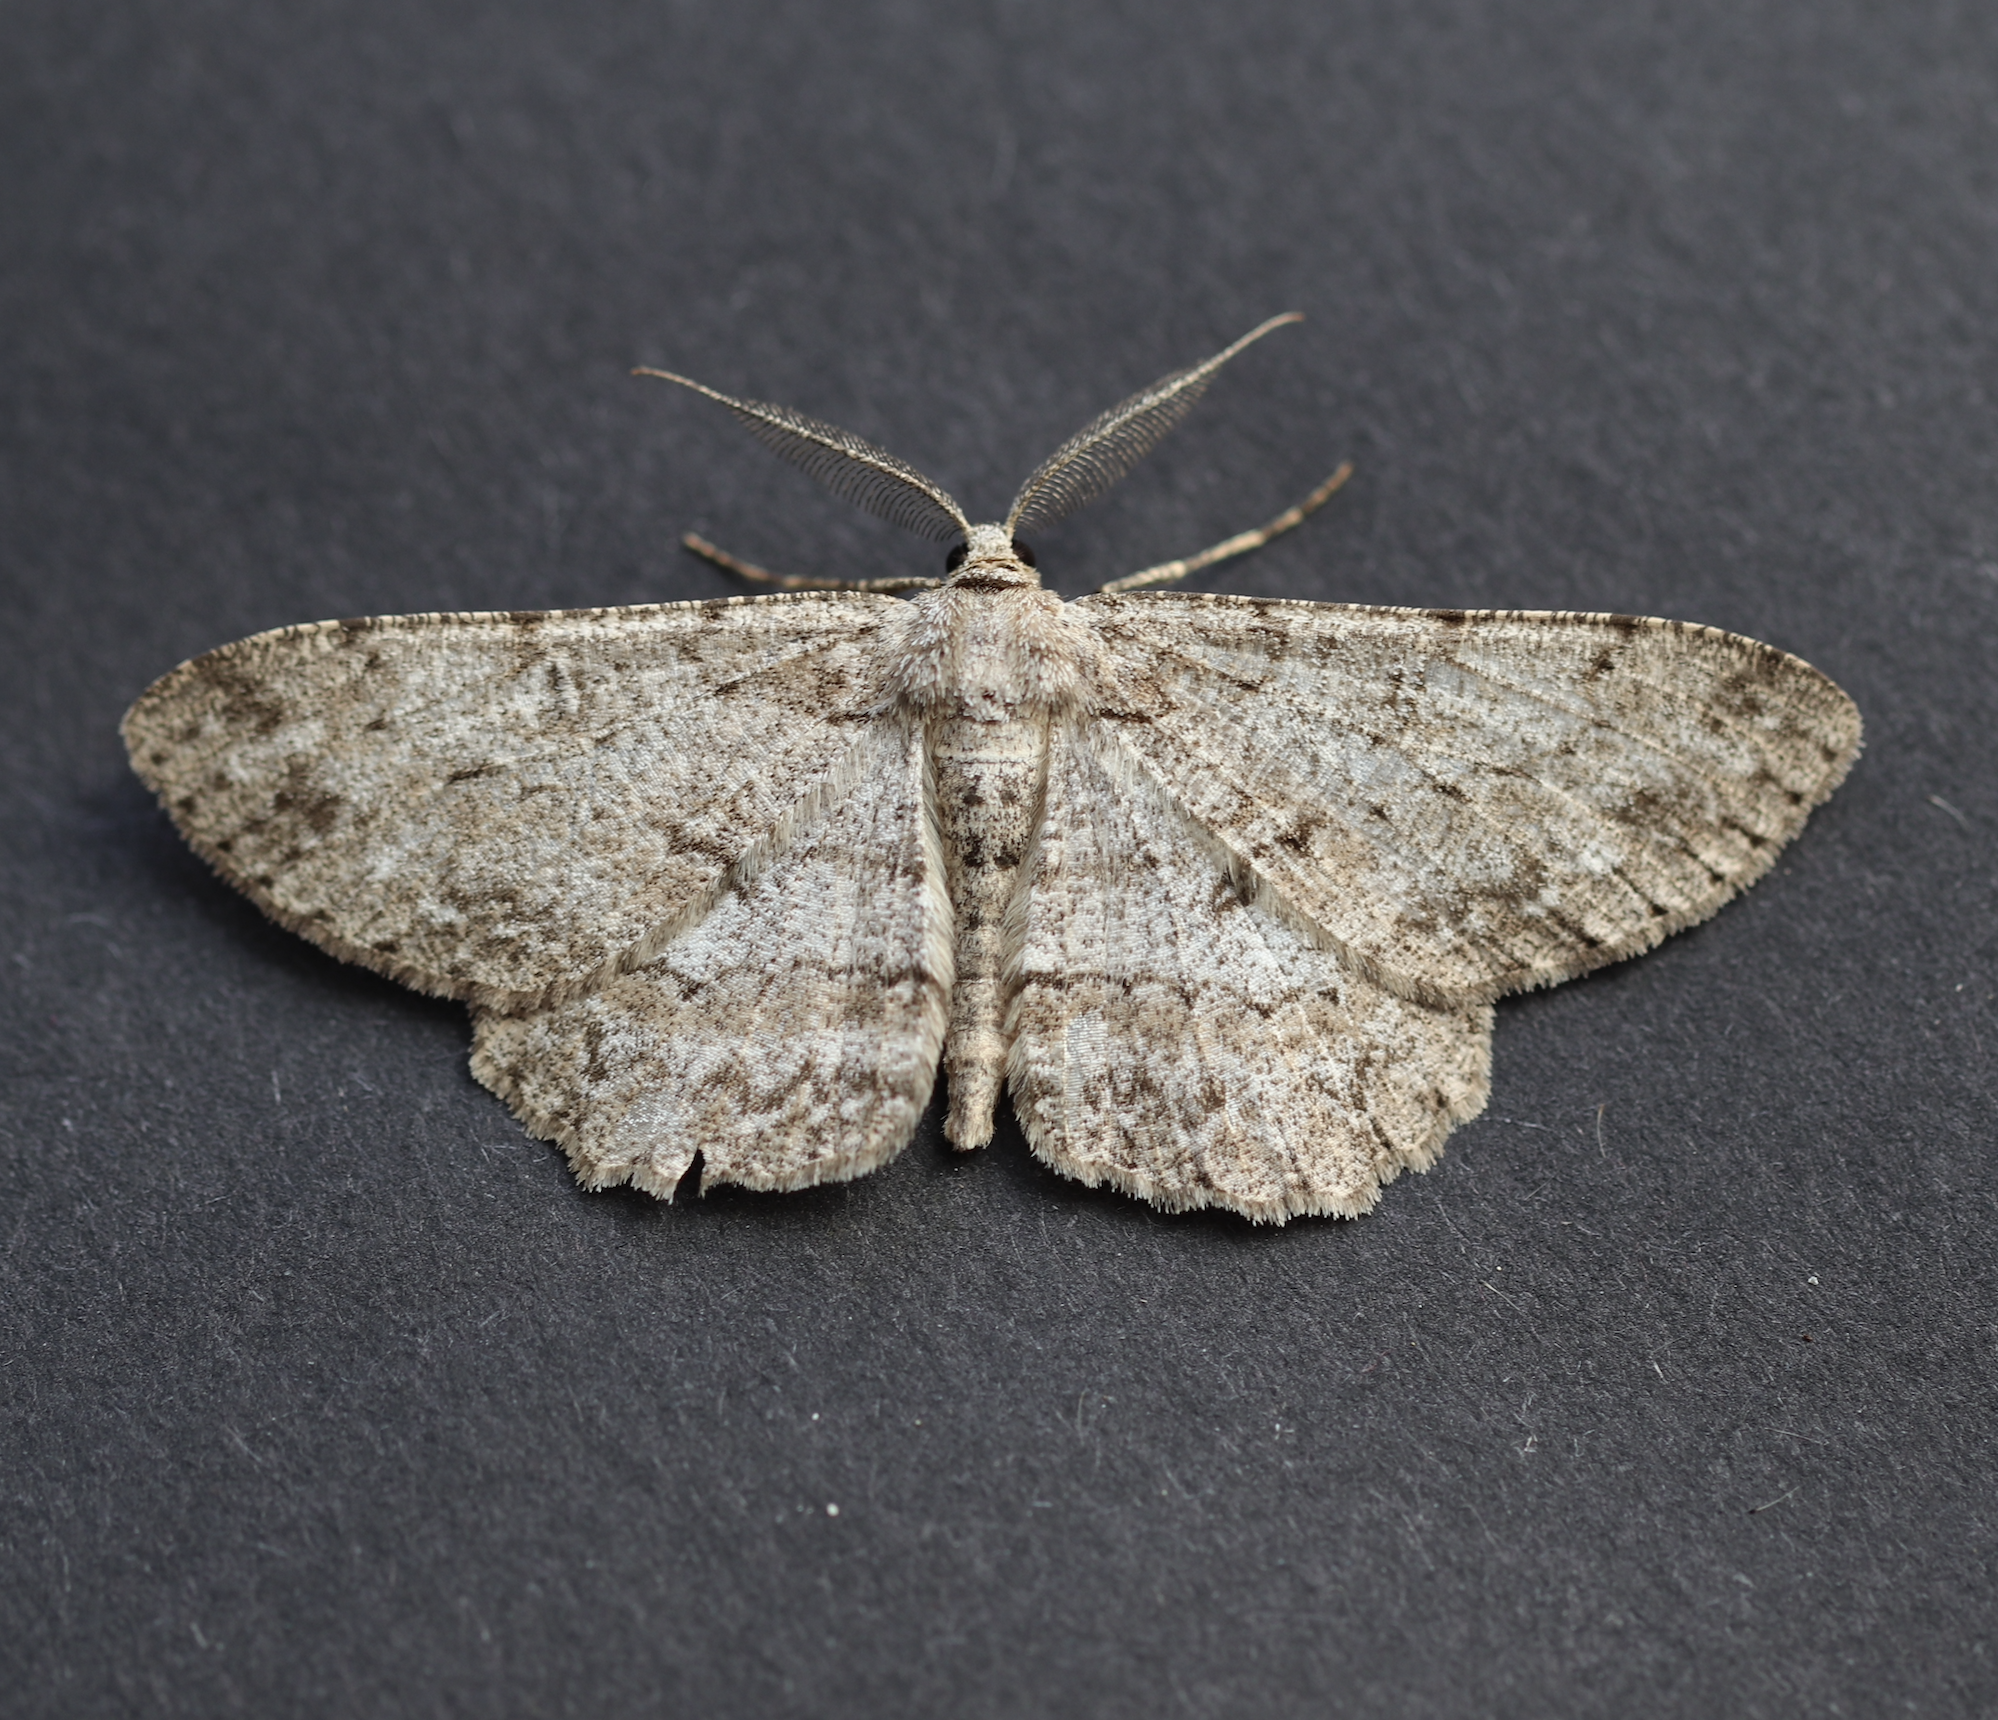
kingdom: Animalia
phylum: Arthropoda
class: Insecta
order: Lepidoptera
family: Geometridae
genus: Hypomecis
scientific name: Hypomecis punctinalis
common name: Pale oak beauty
